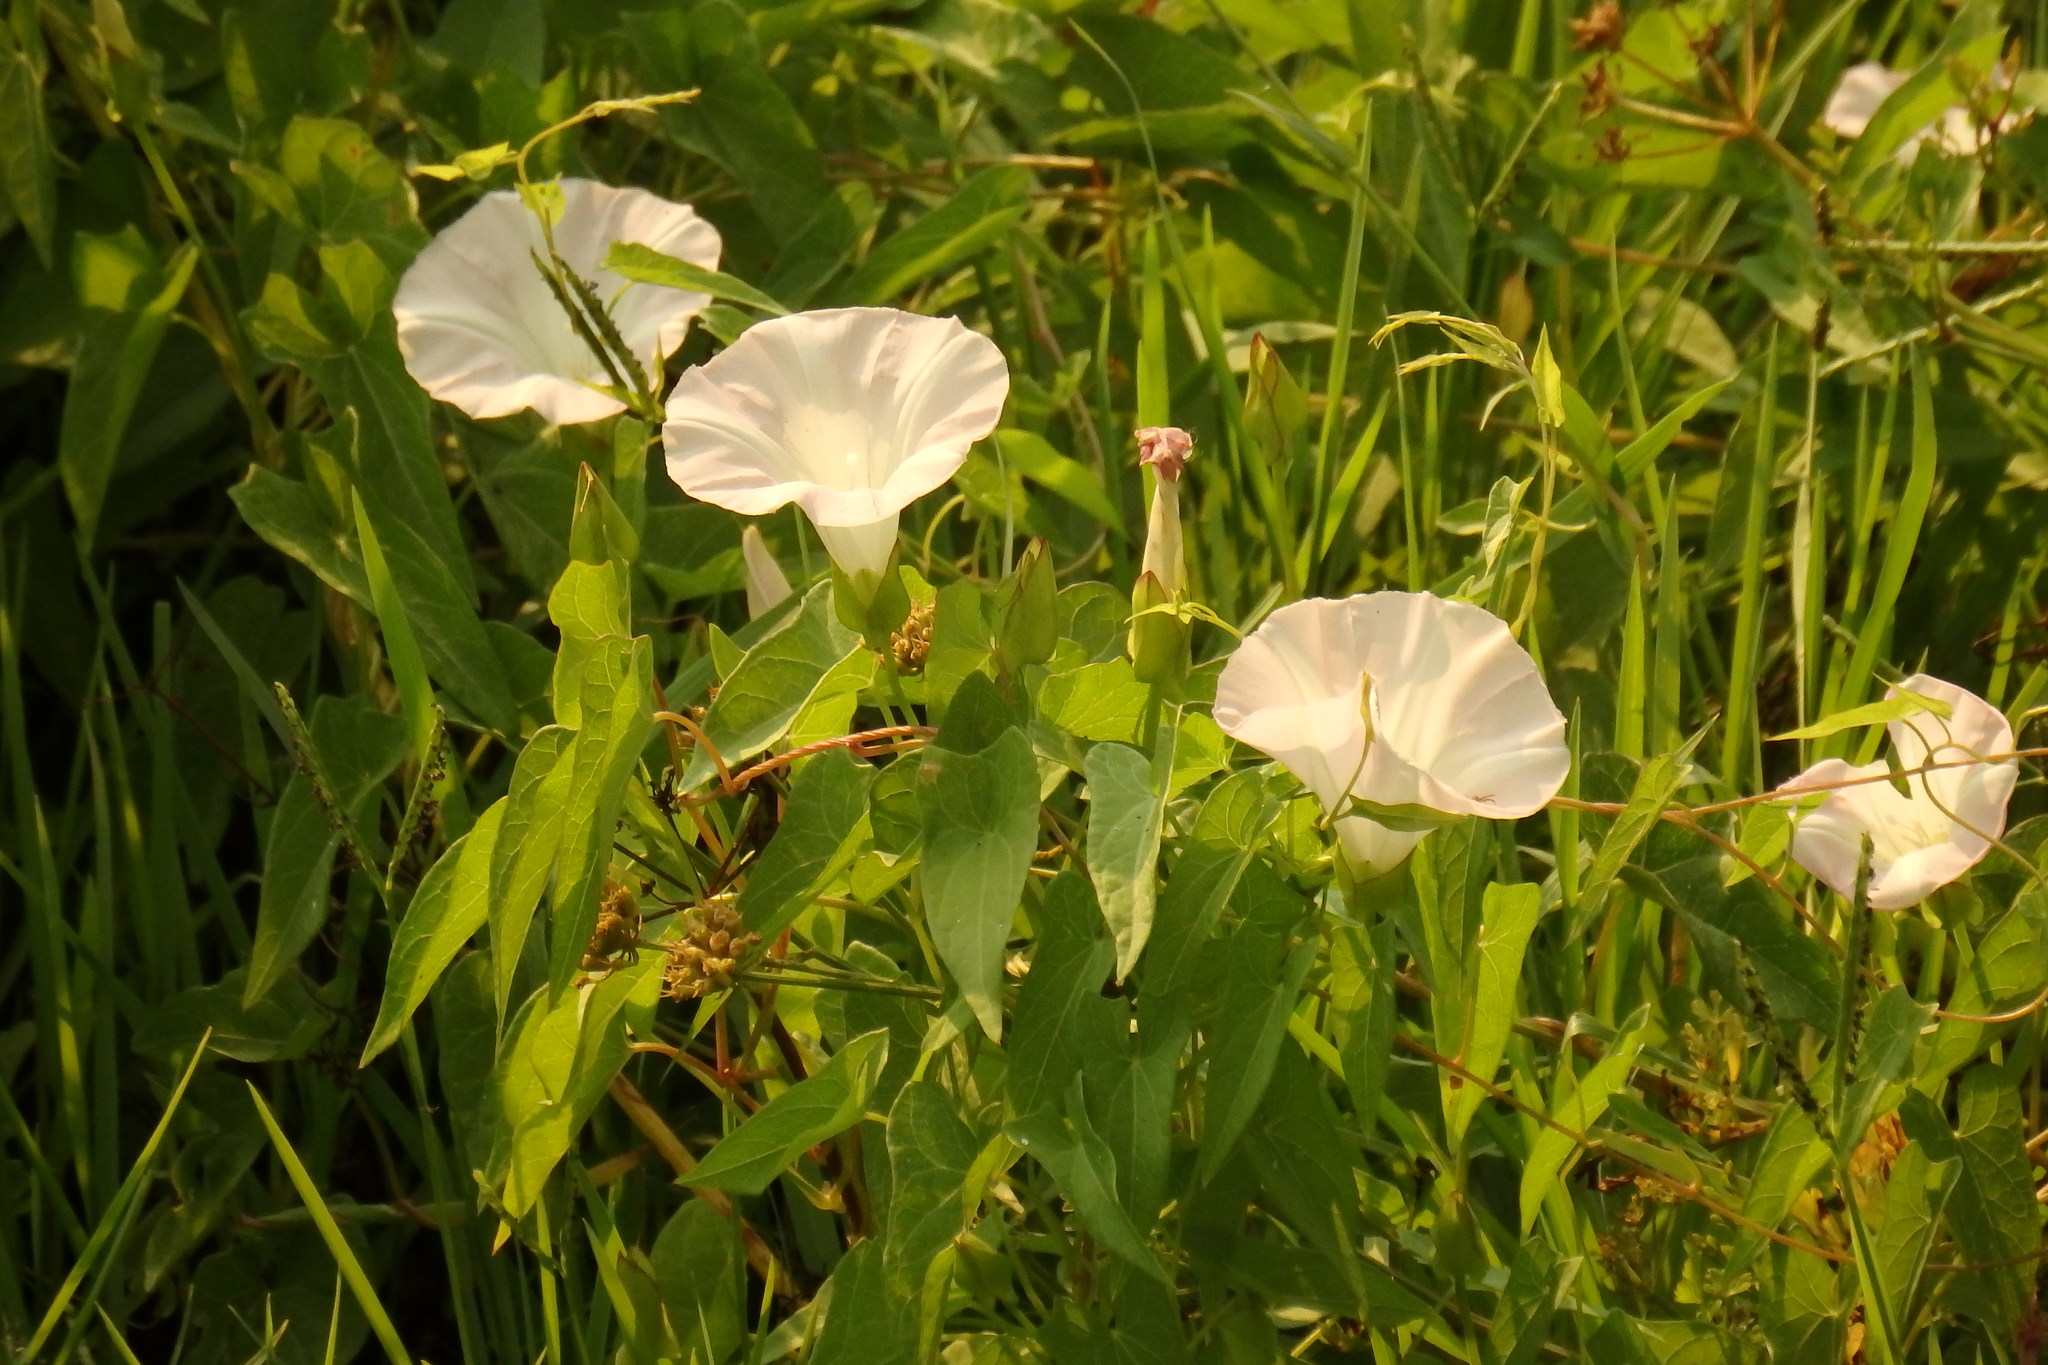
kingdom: Plantae
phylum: Tracheophyta
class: Magnoliopsida
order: Solanales
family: Convolvulaceae
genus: Calystegia
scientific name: Calystegia silvatica
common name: Large bindweed
